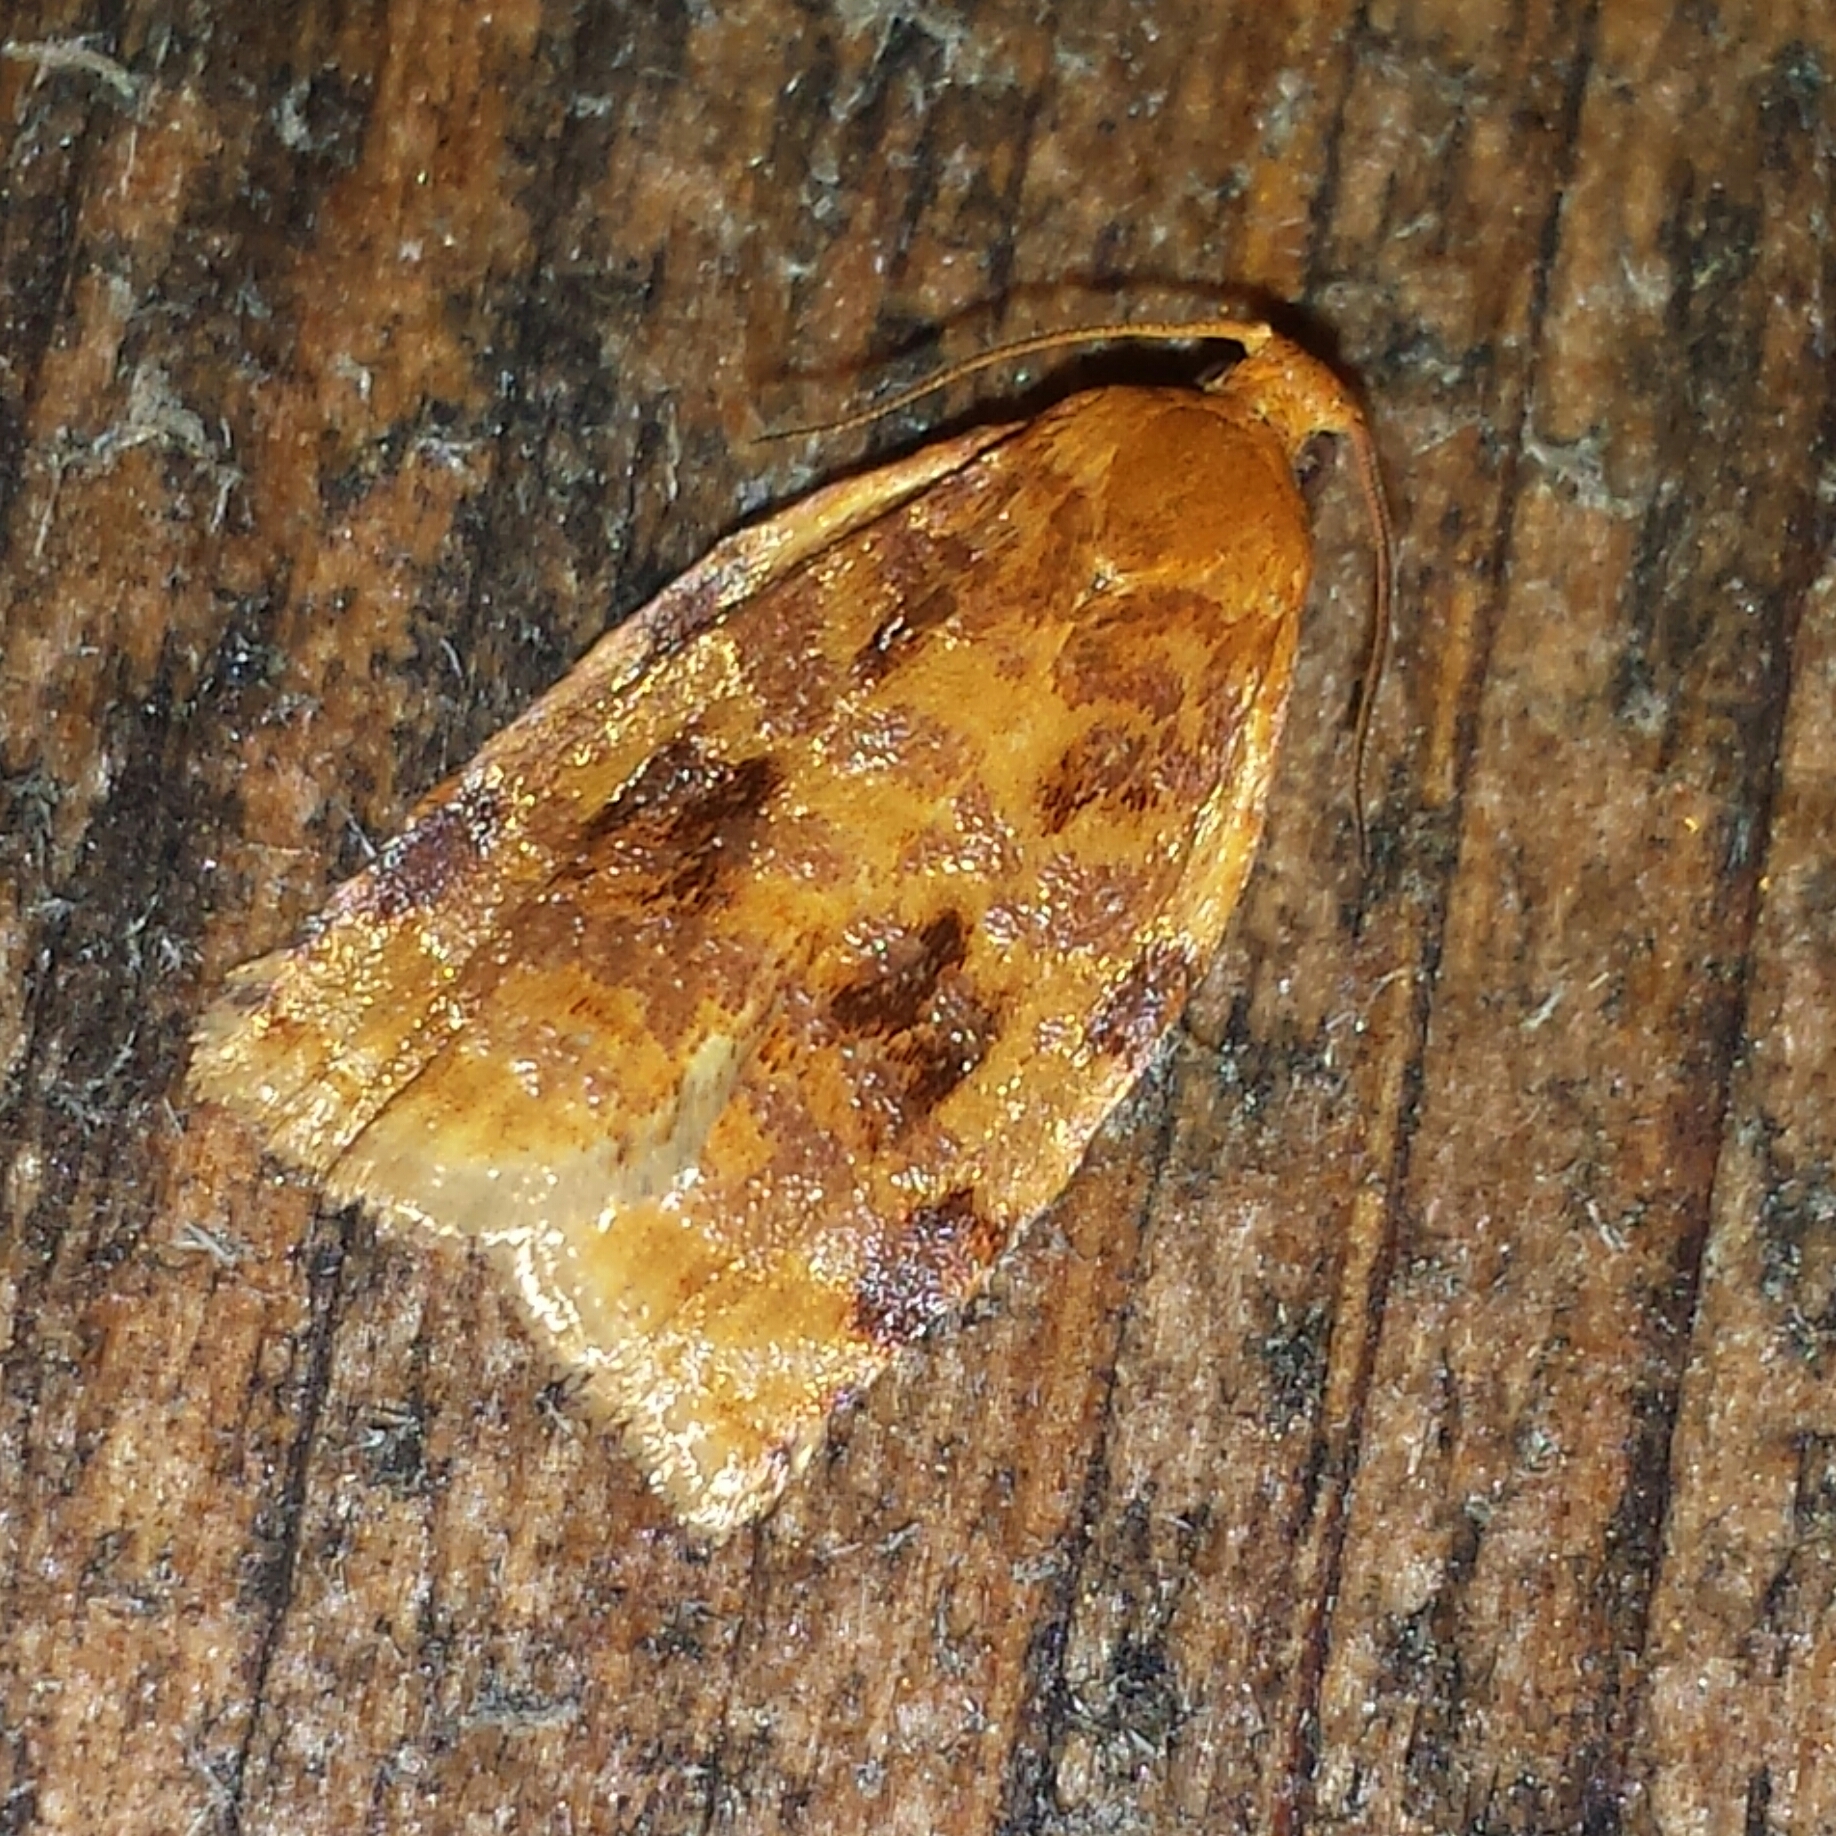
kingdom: Animalia
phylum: Arthropoda
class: Insecta
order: Lepidoptera
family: Tortricidae
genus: Archips
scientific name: Archips cerasivorana
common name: Uglynest caterpillar
